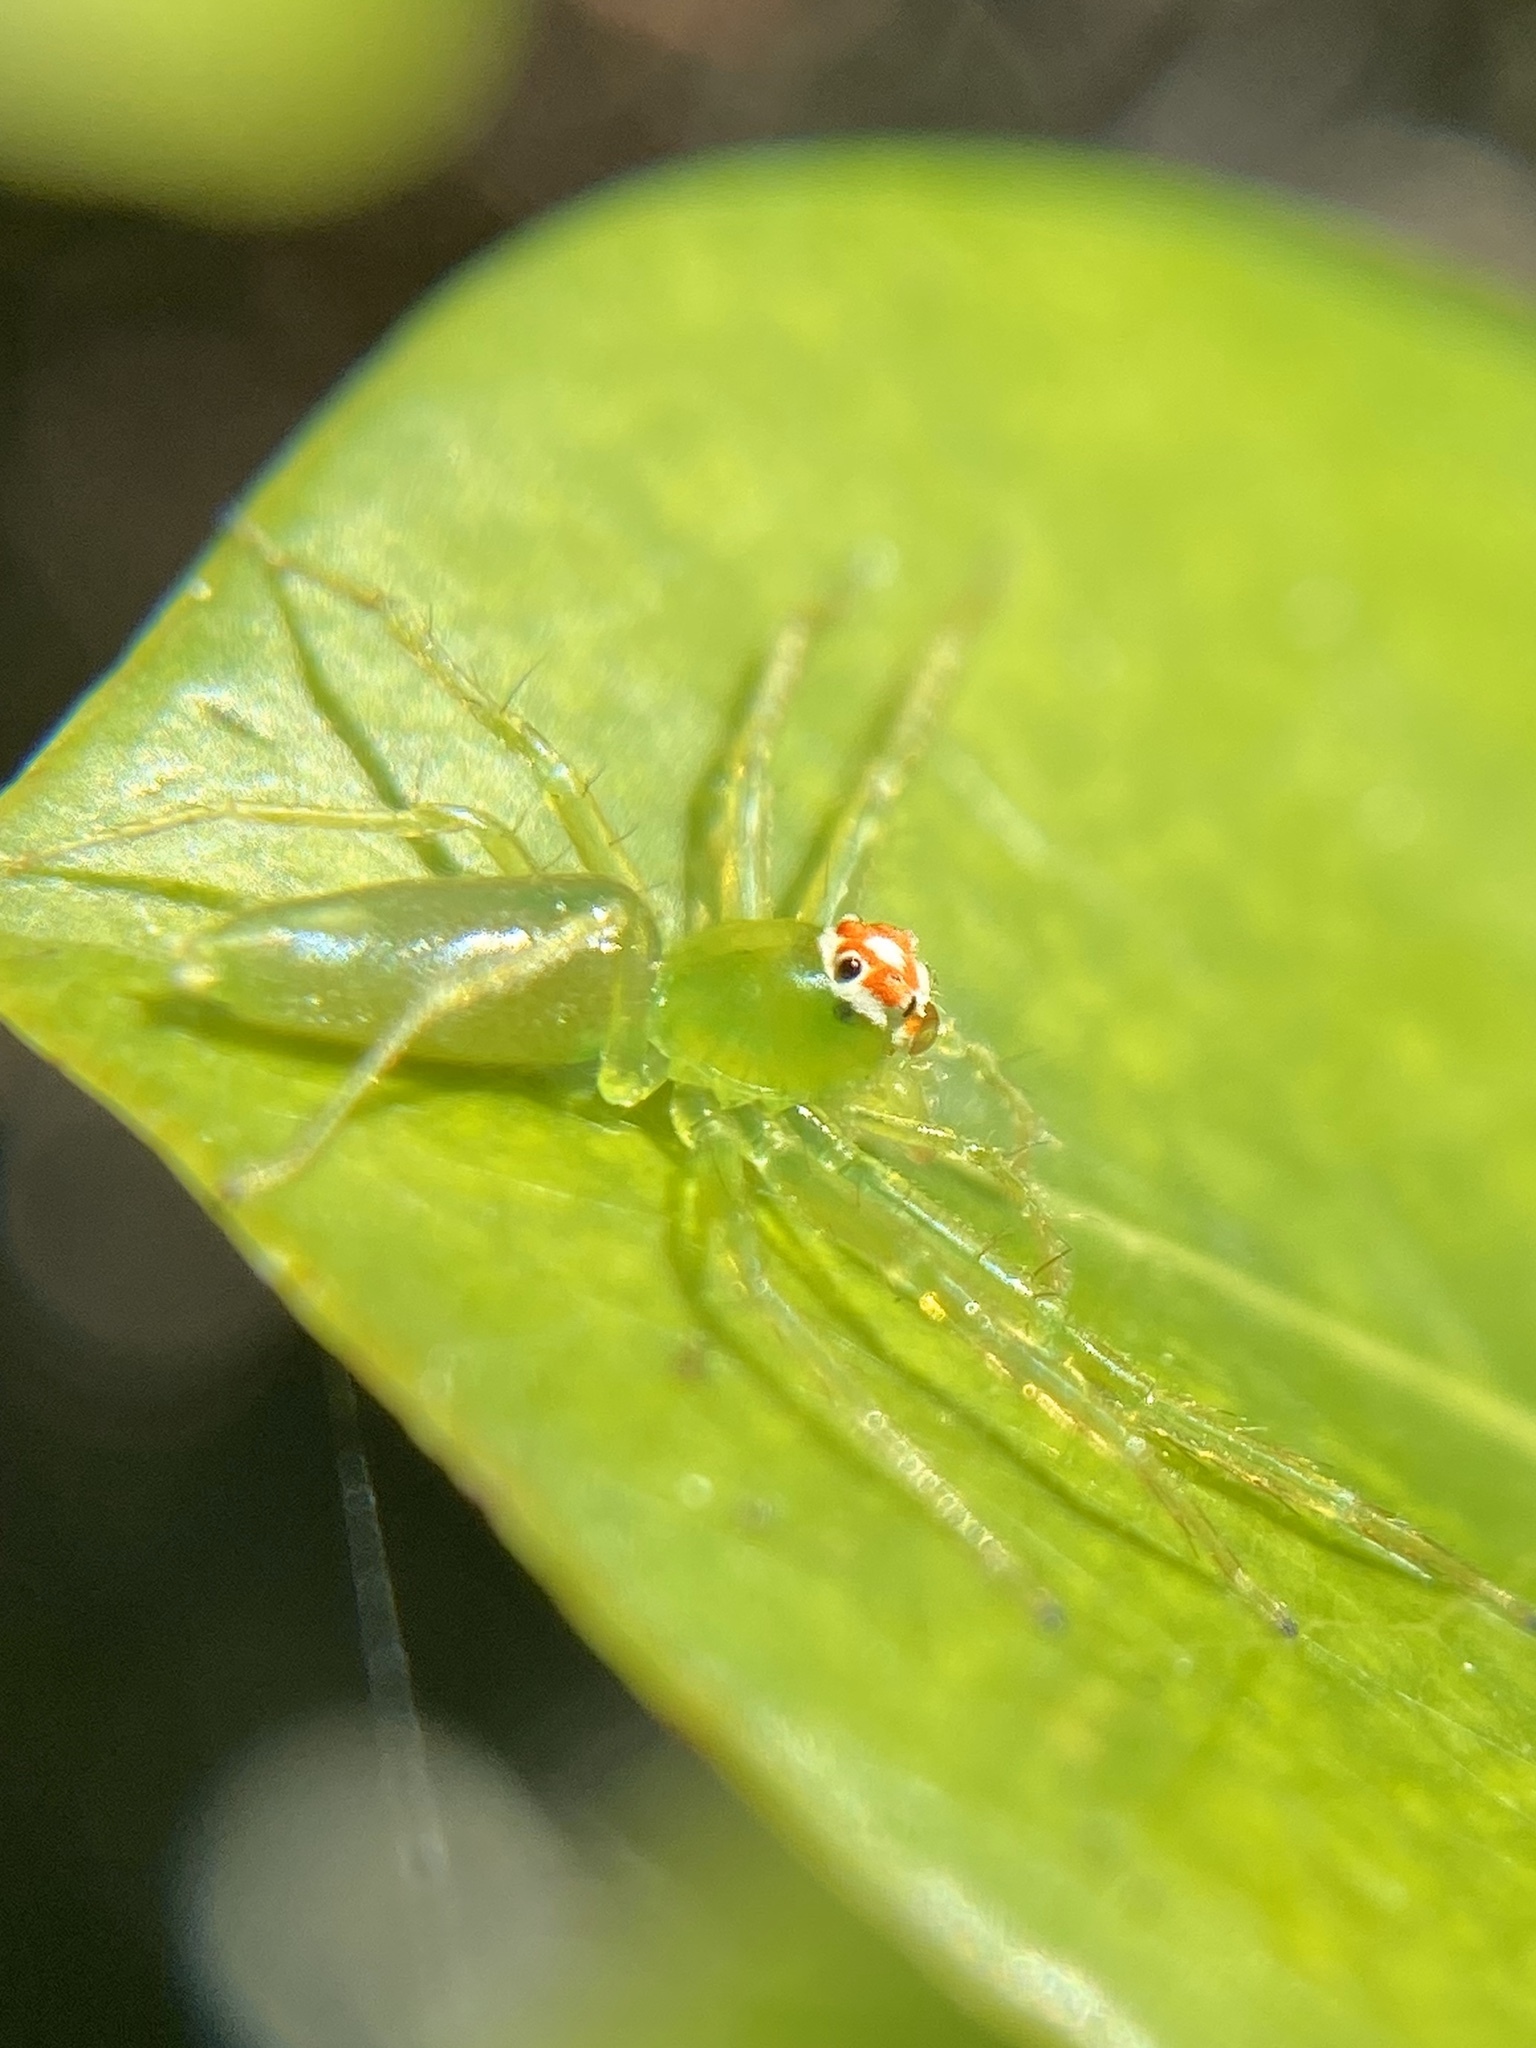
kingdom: Animalia
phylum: Arthropoda
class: Arachnida
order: Araneae
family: Salticidae
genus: Lyssomanes
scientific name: Lyssomanes viridis
